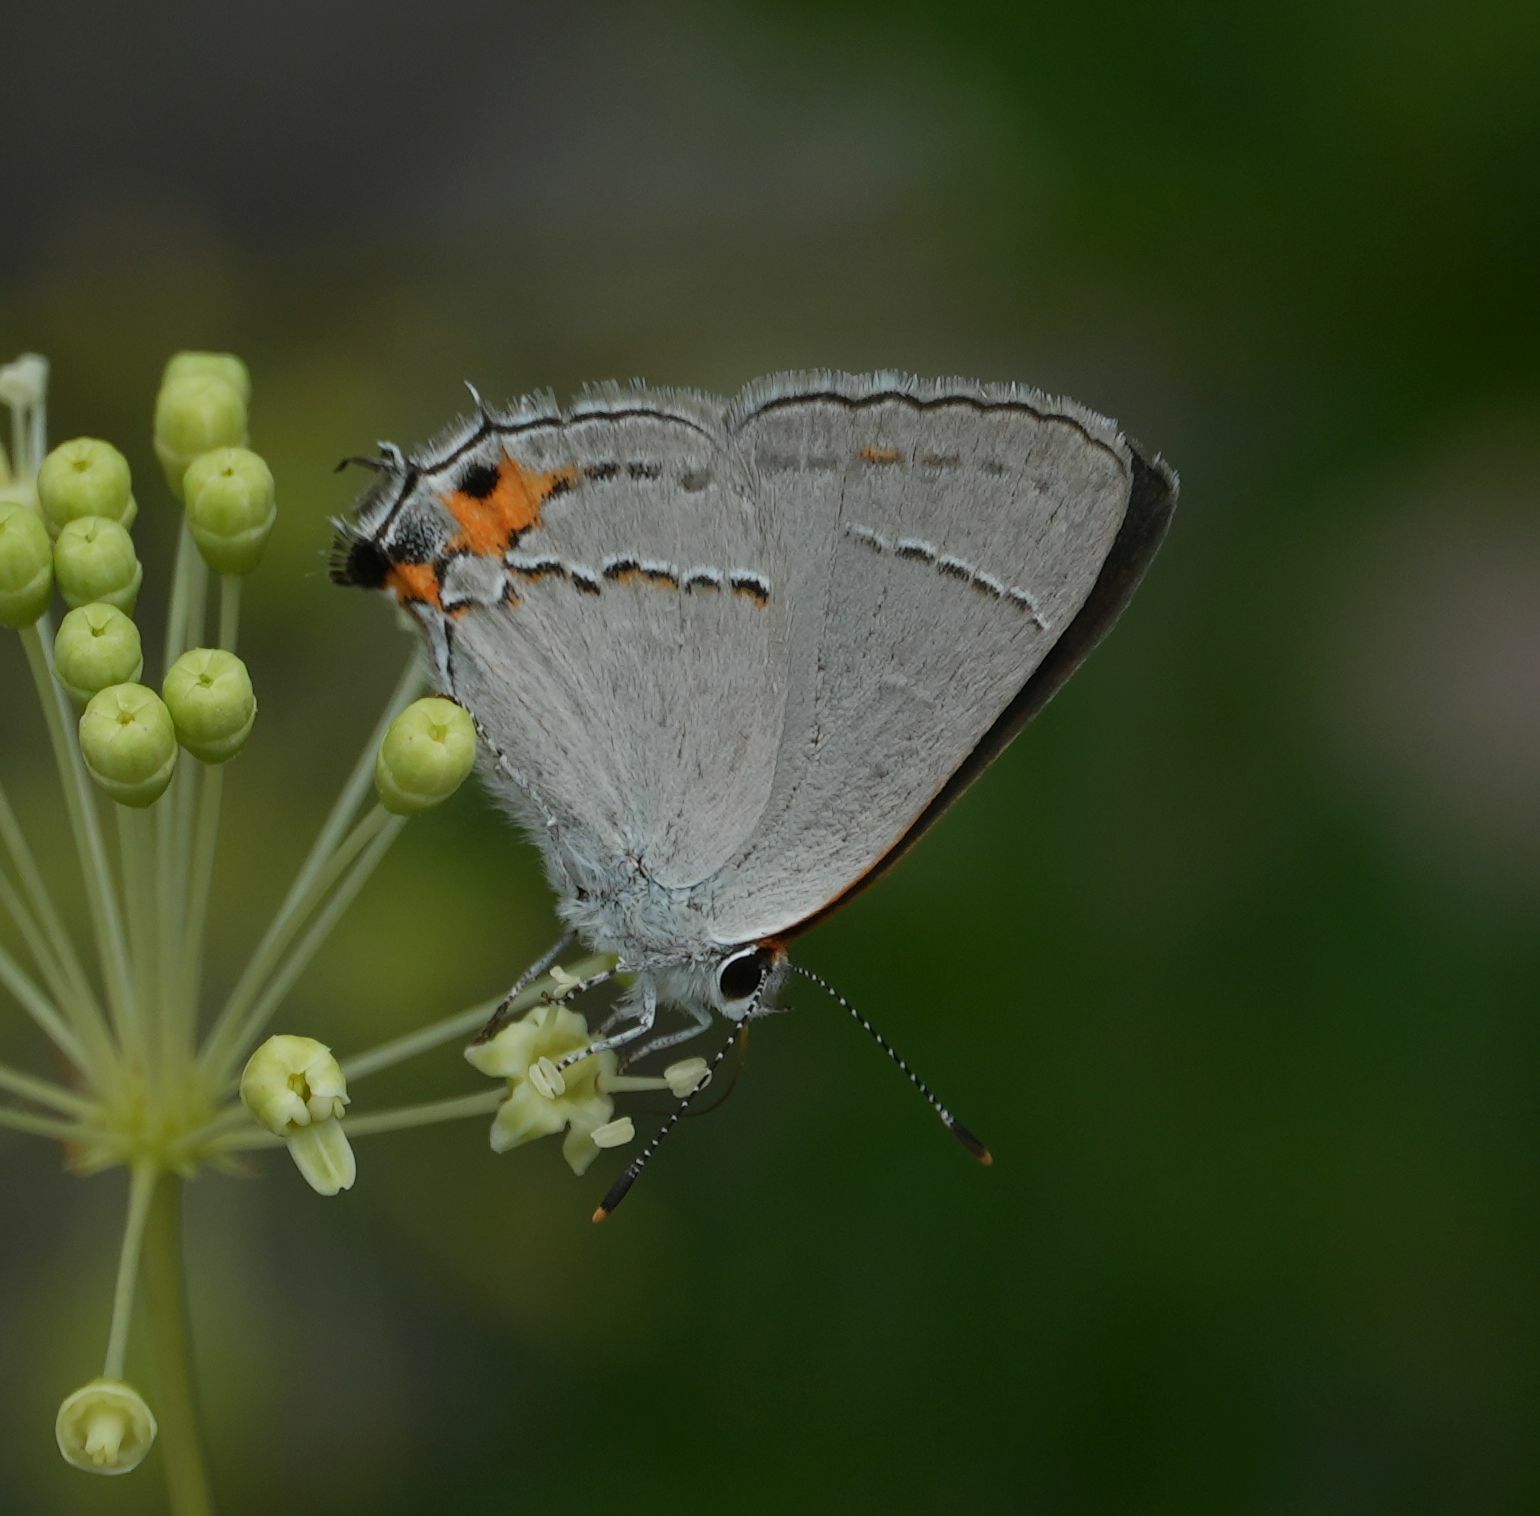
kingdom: Animalia
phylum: Arthropoda
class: Insecta
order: Lepidoptera
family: Lycaenidae
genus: Strymon
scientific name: Strymon melinus
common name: Gray hairstreak
